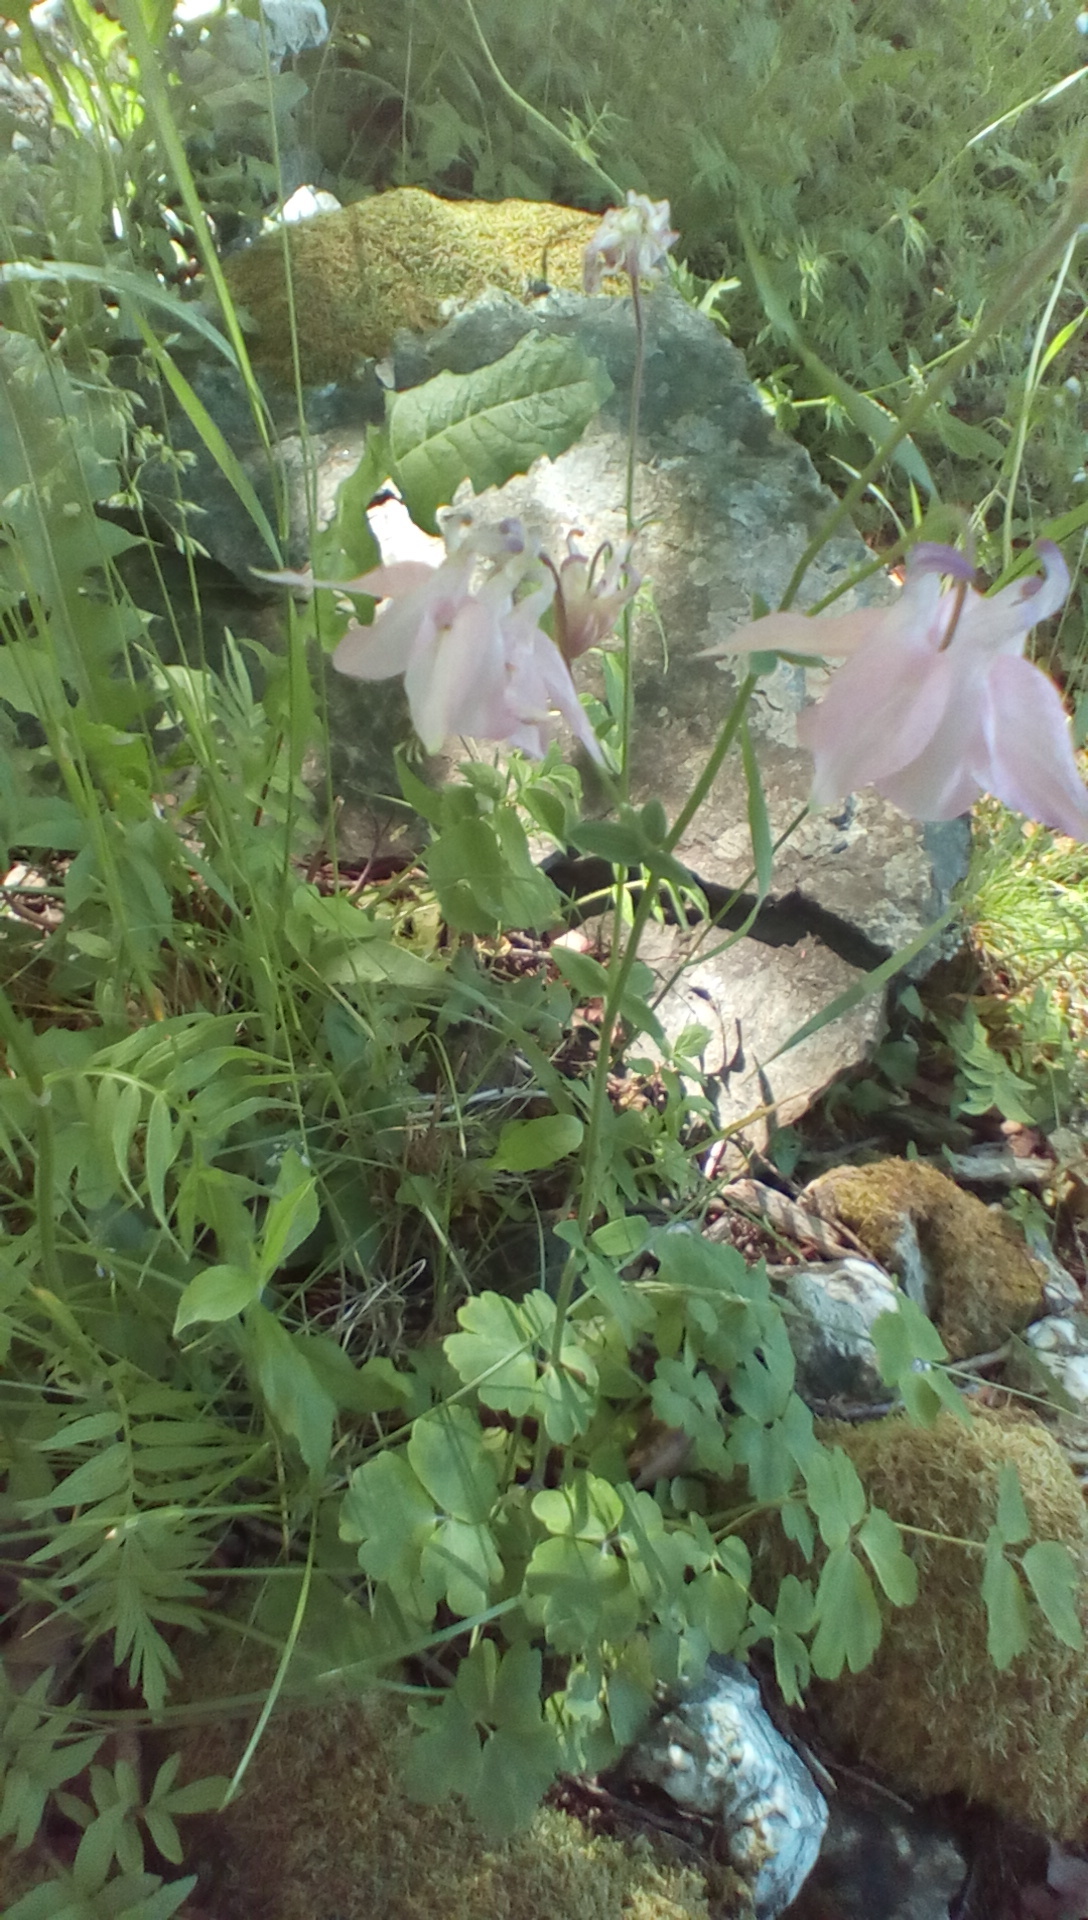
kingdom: Plantae
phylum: Tracheophyta
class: Magnoliopsida
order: Ranunculales
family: Ranunculaceae
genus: Aquilegia
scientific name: Aquilegia vulgaris
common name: Columbine
